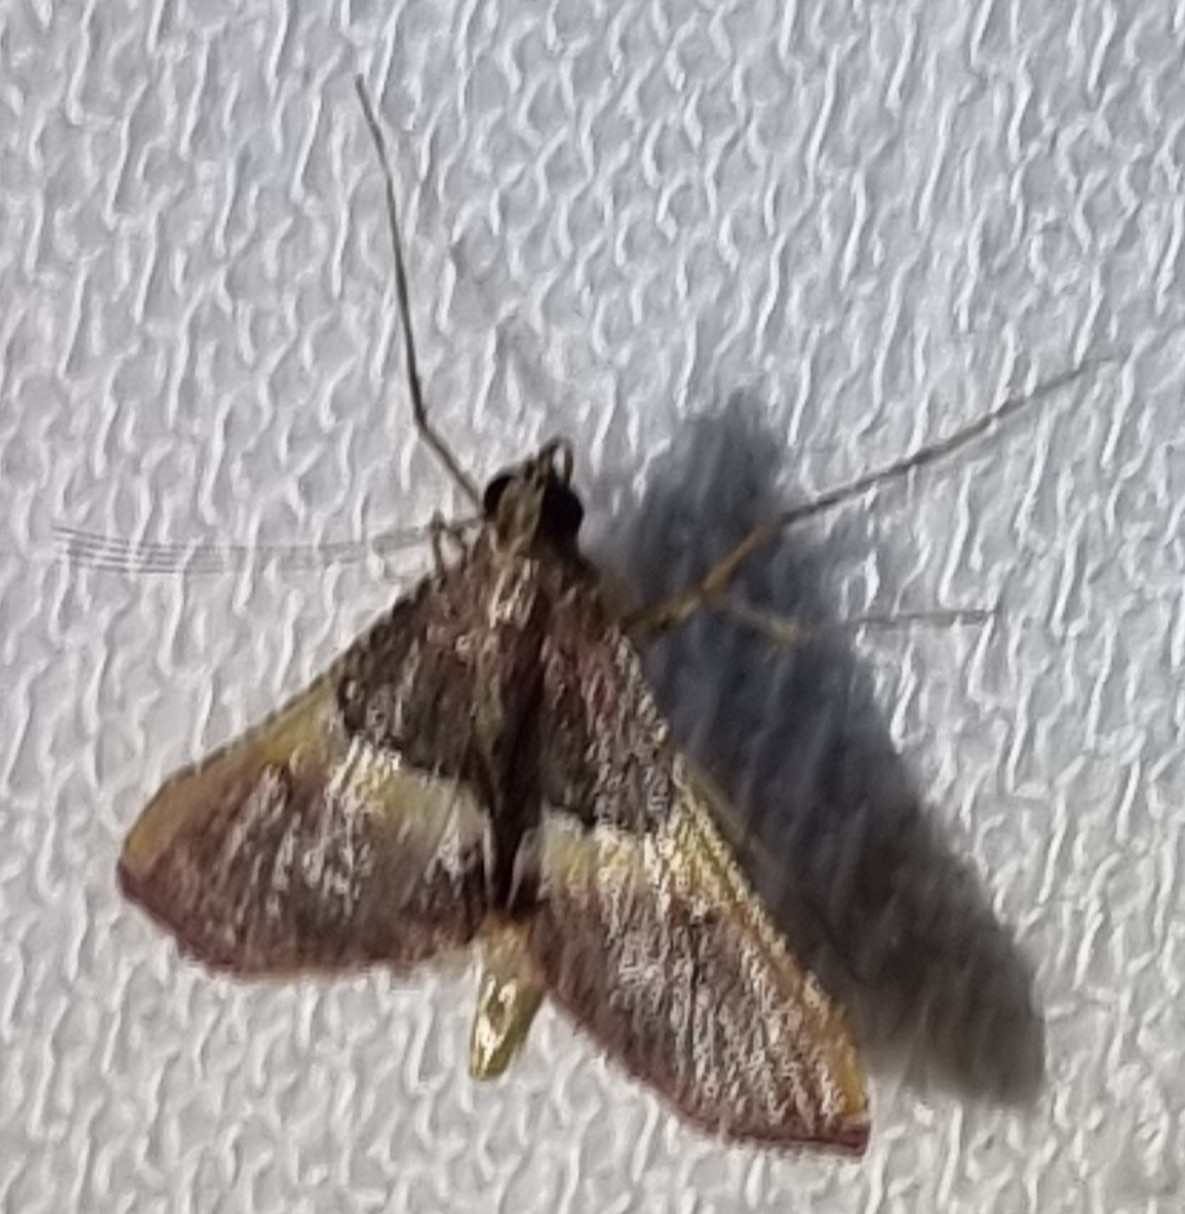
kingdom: Animalia
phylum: Arthropoda
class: Insecta
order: Lepidoptera
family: Pyralidae
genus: Endotricha
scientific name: Endotricha mesenterialis
